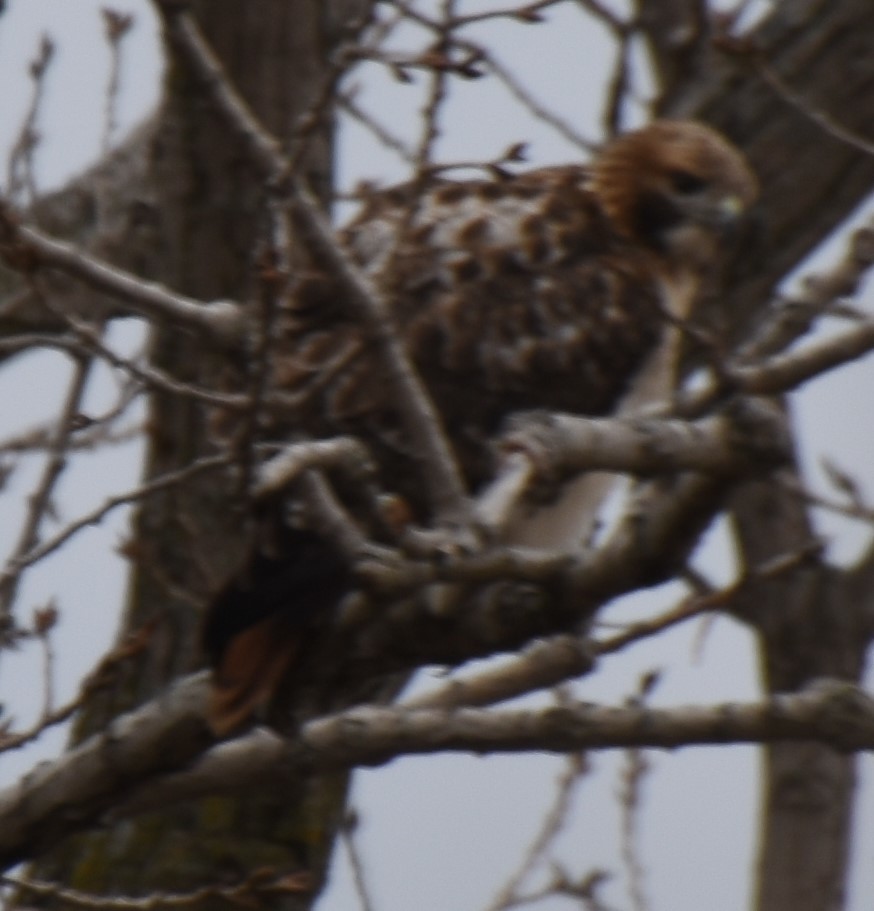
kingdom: Animalia
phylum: Chordata
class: Aves
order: Accipitriformes
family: Accipitridae
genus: Buteo
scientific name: Buteo jamaicensis
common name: Red-tailed hawk
